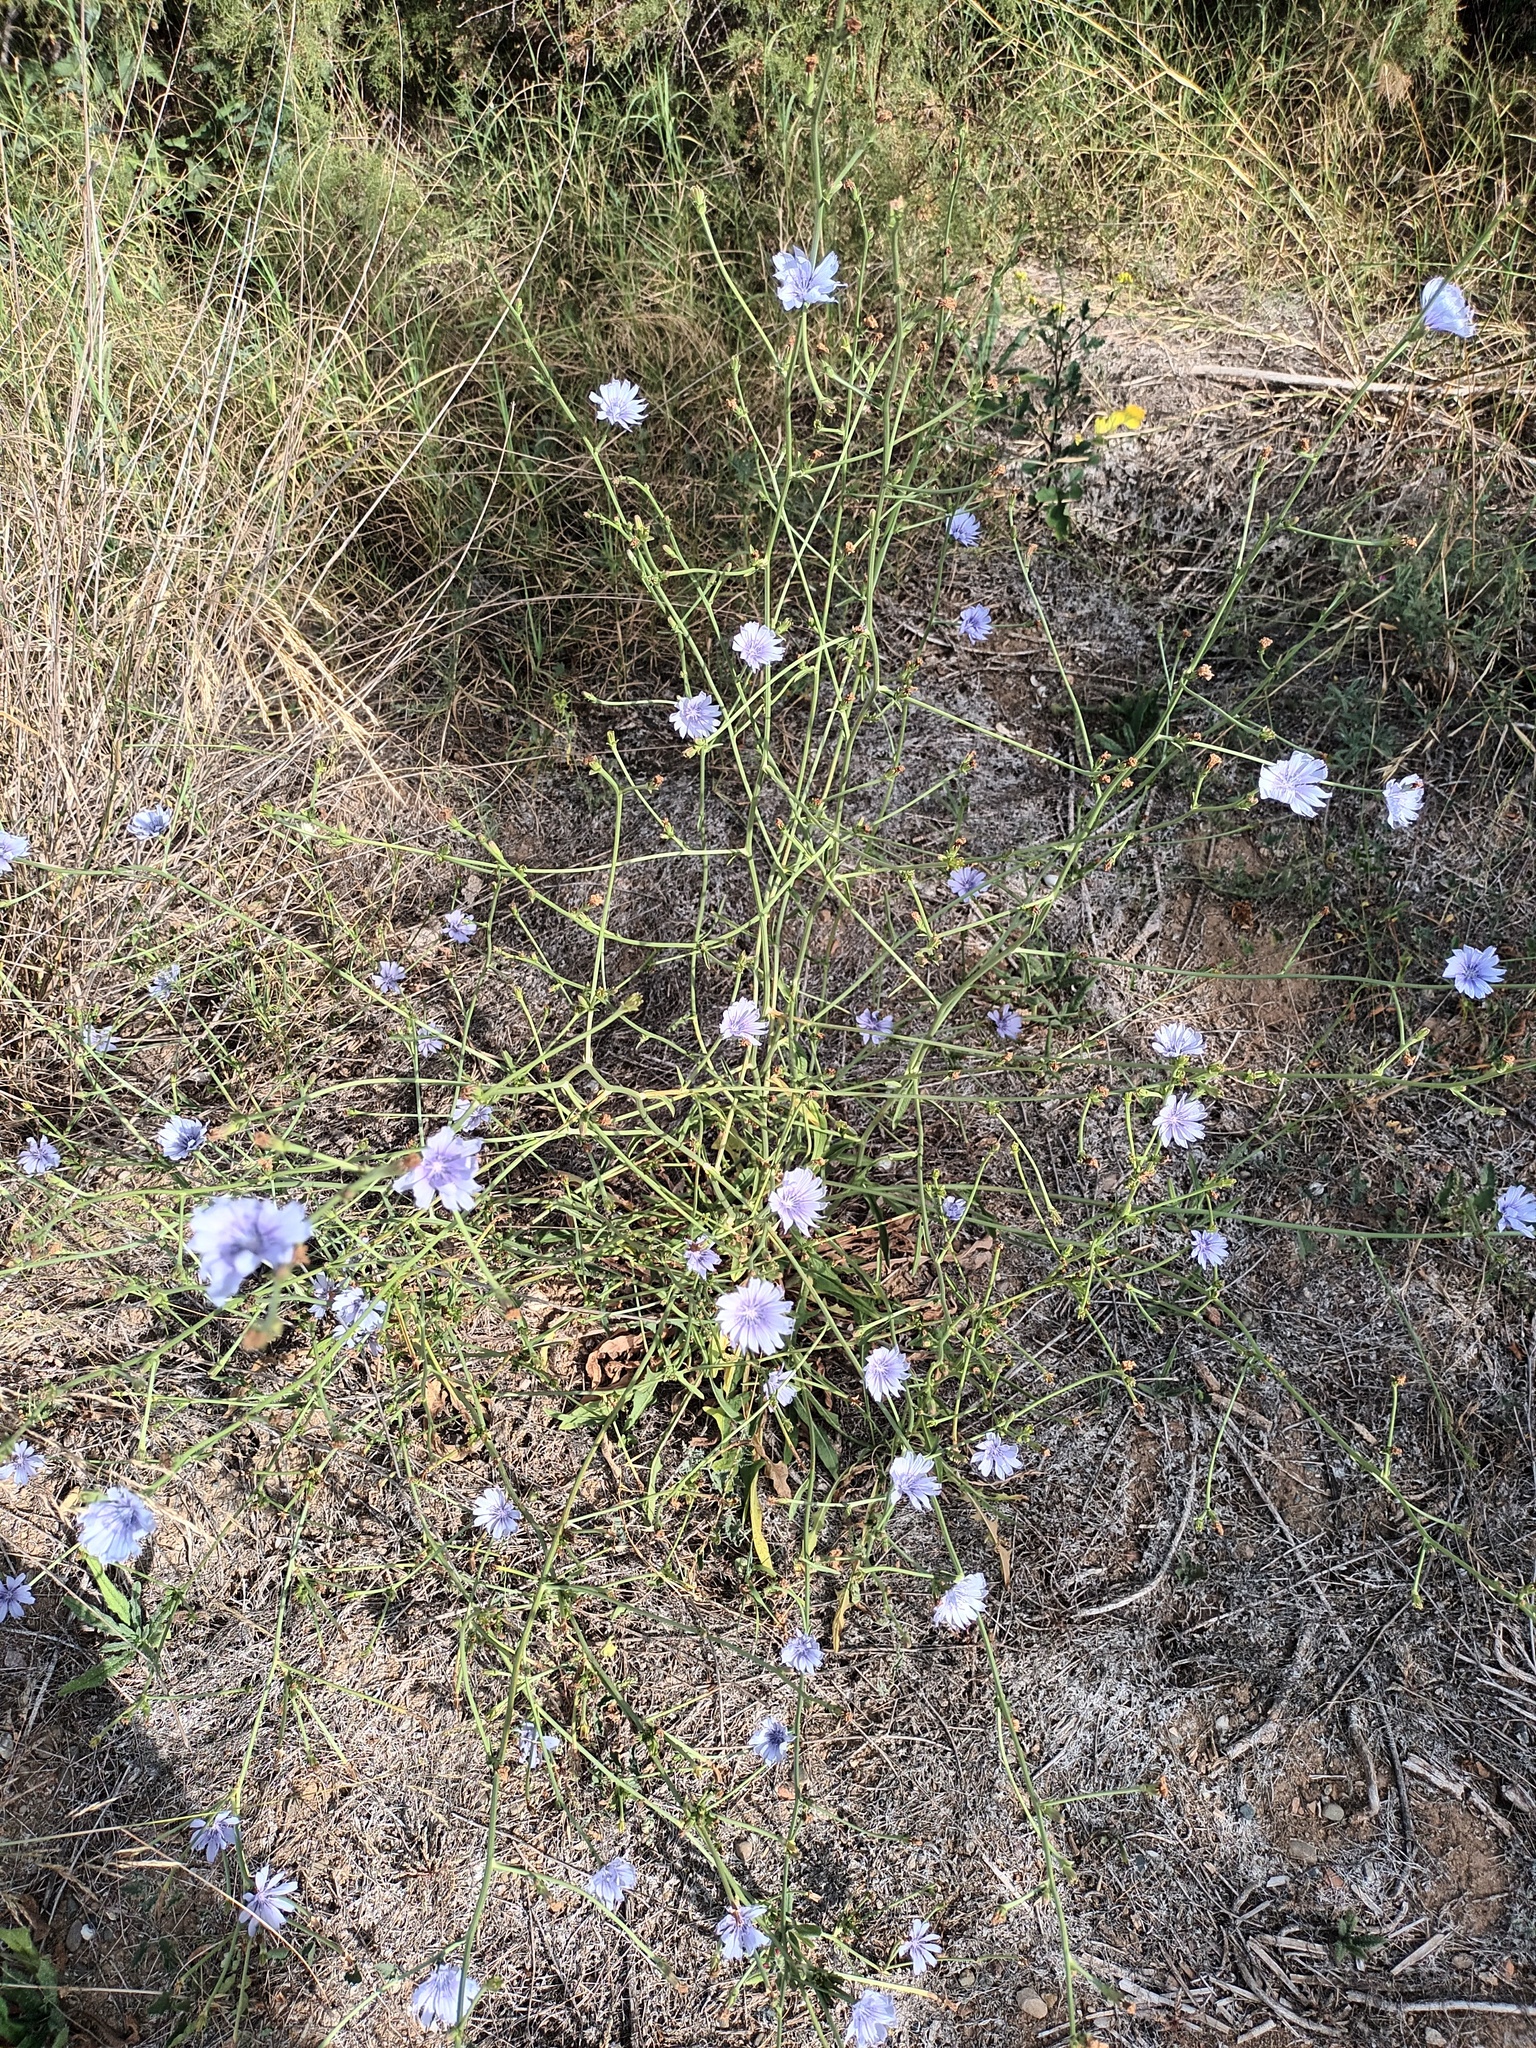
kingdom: Plantae
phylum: Tracheophyta
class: Magnoliopsida
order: Asterales
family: Asteraceae
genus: Cichorium
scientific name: Cichorium intybus
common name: Chicory
